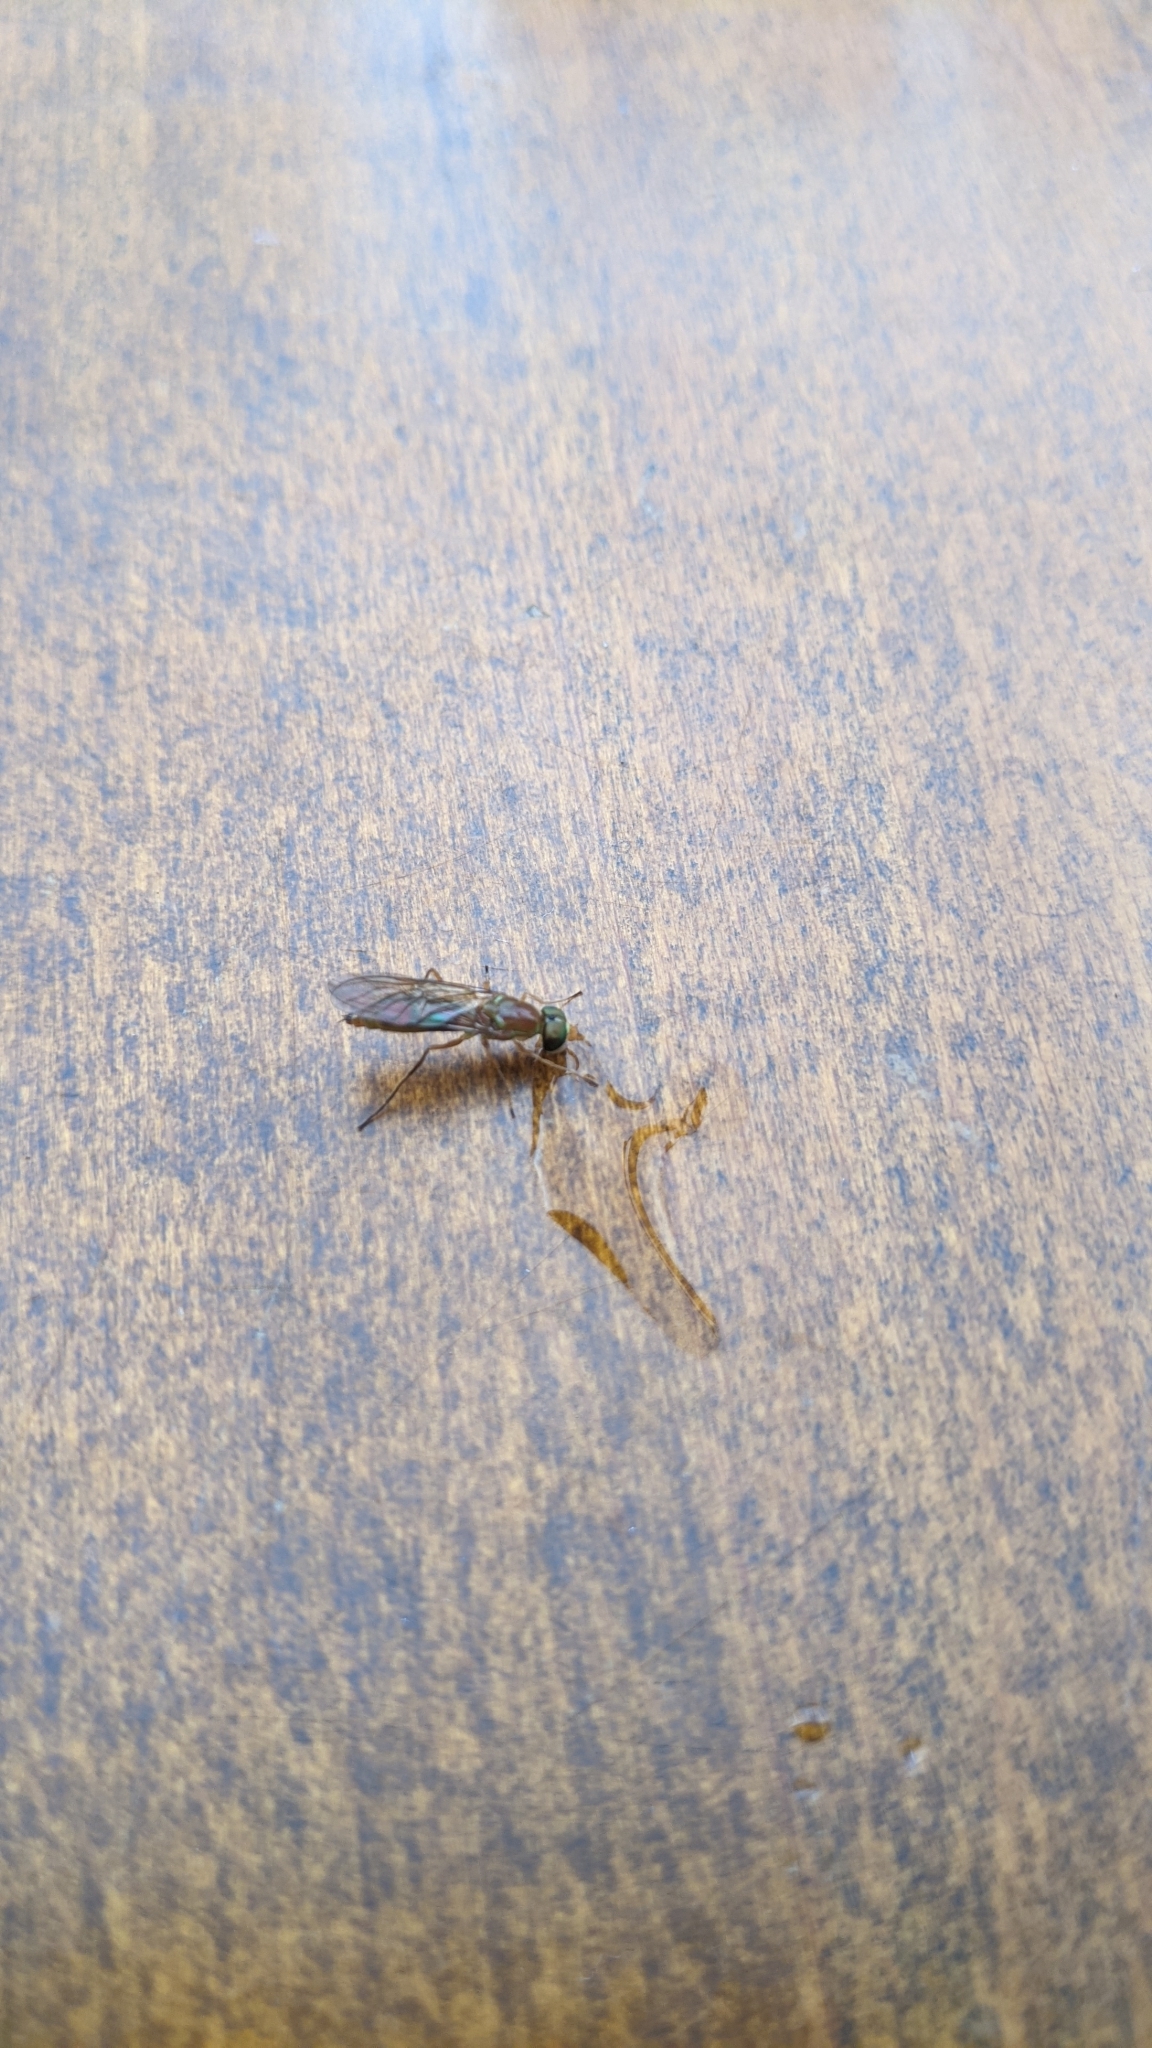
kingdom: Animalia
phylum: Arthropoda
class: Insecta
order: Diptera
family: Stratiomyidae
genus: Ptecticus
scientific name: Ptecticus trivittatus
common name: Compost fly
